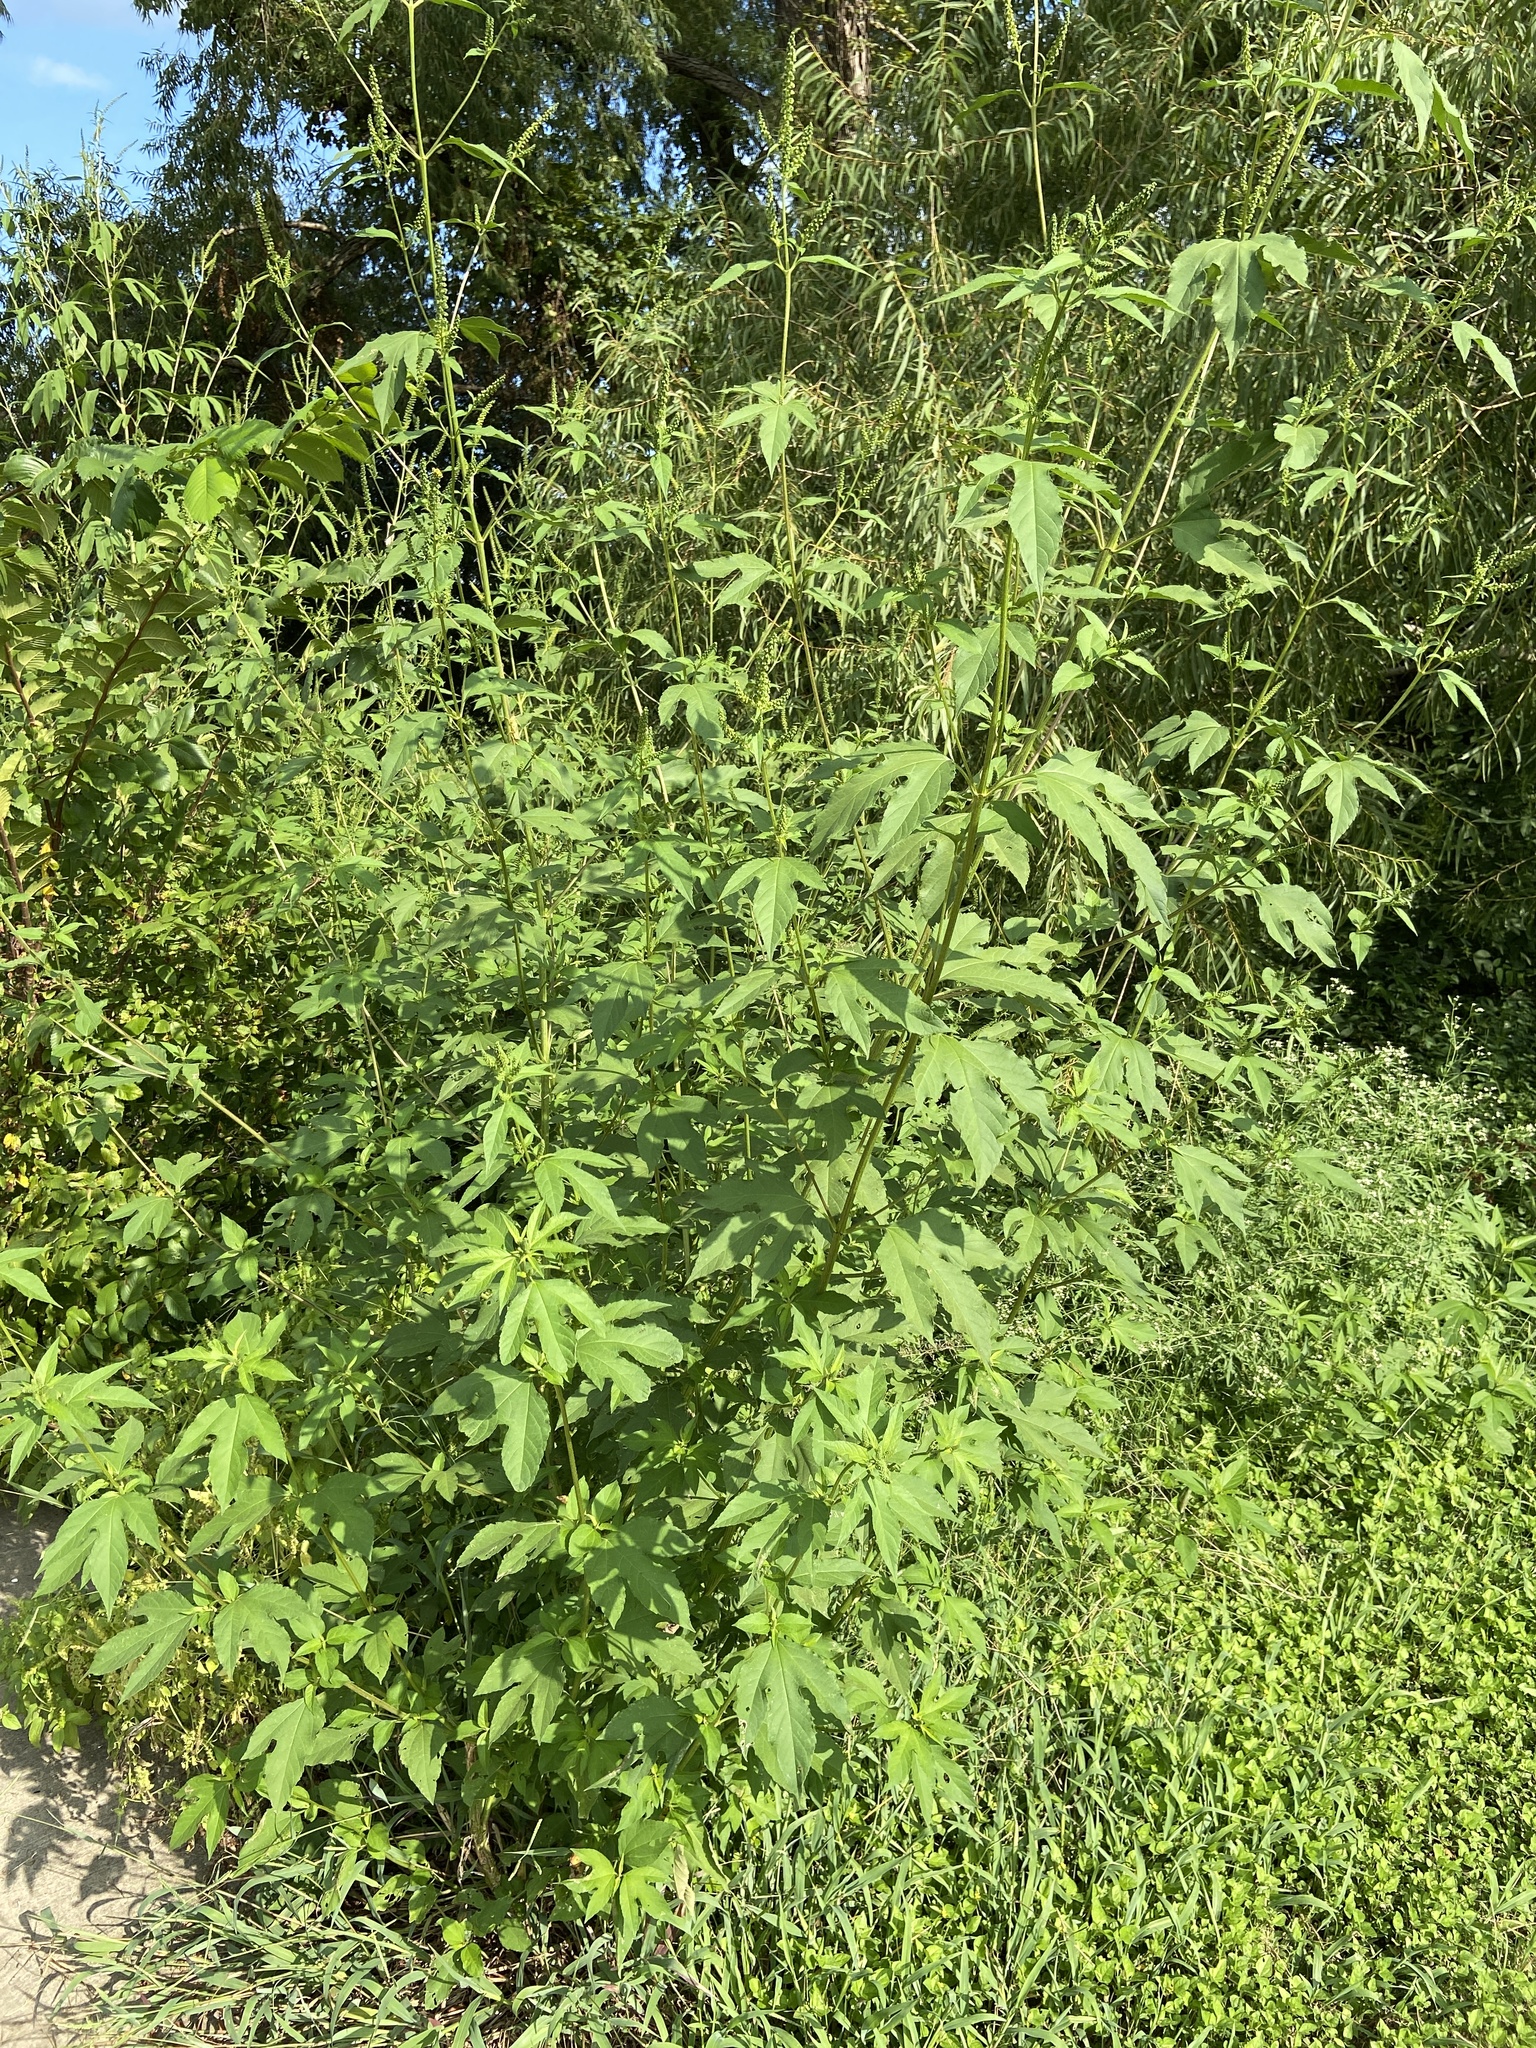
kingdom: Plantae
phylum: Tracheophyta
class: Magnoliopsida
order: Asterales
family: Asteraceae
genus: Ambrosia
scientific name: Ambrosia trifida
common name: Giant ragweed
